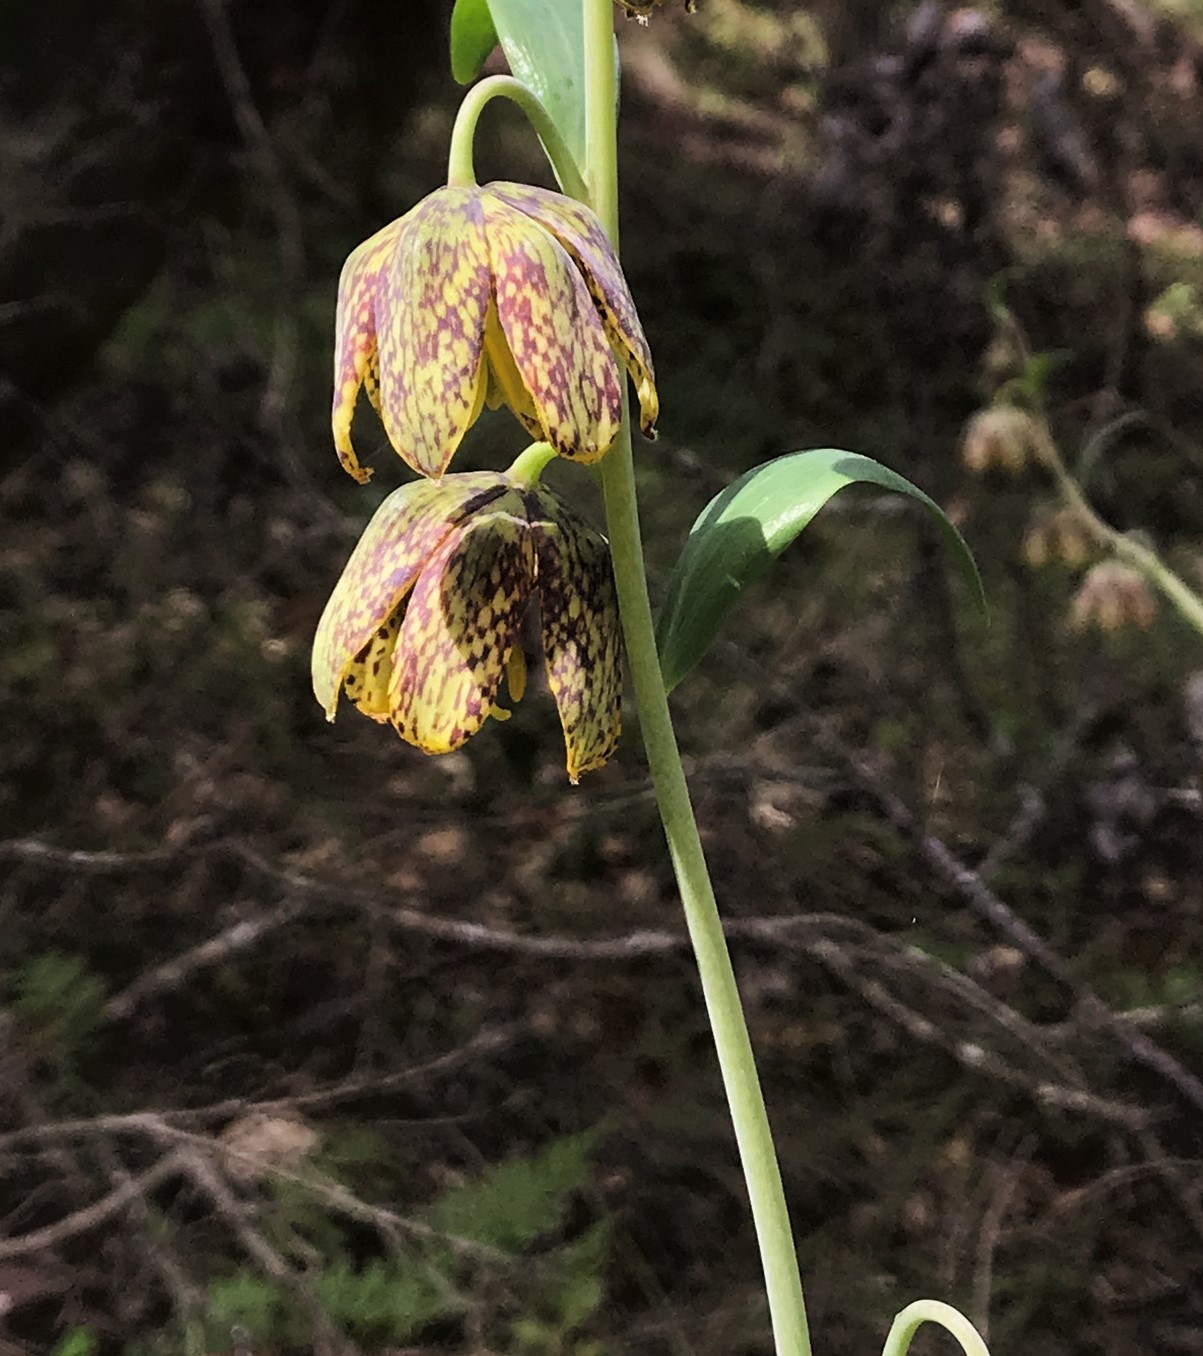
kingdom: Plantae
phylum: Tracheophyta
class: Liliopsida
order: Liliales
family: Liliaceae
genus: Fritillaria
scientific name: Fritillaria affinis
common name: Ojai fritillary
